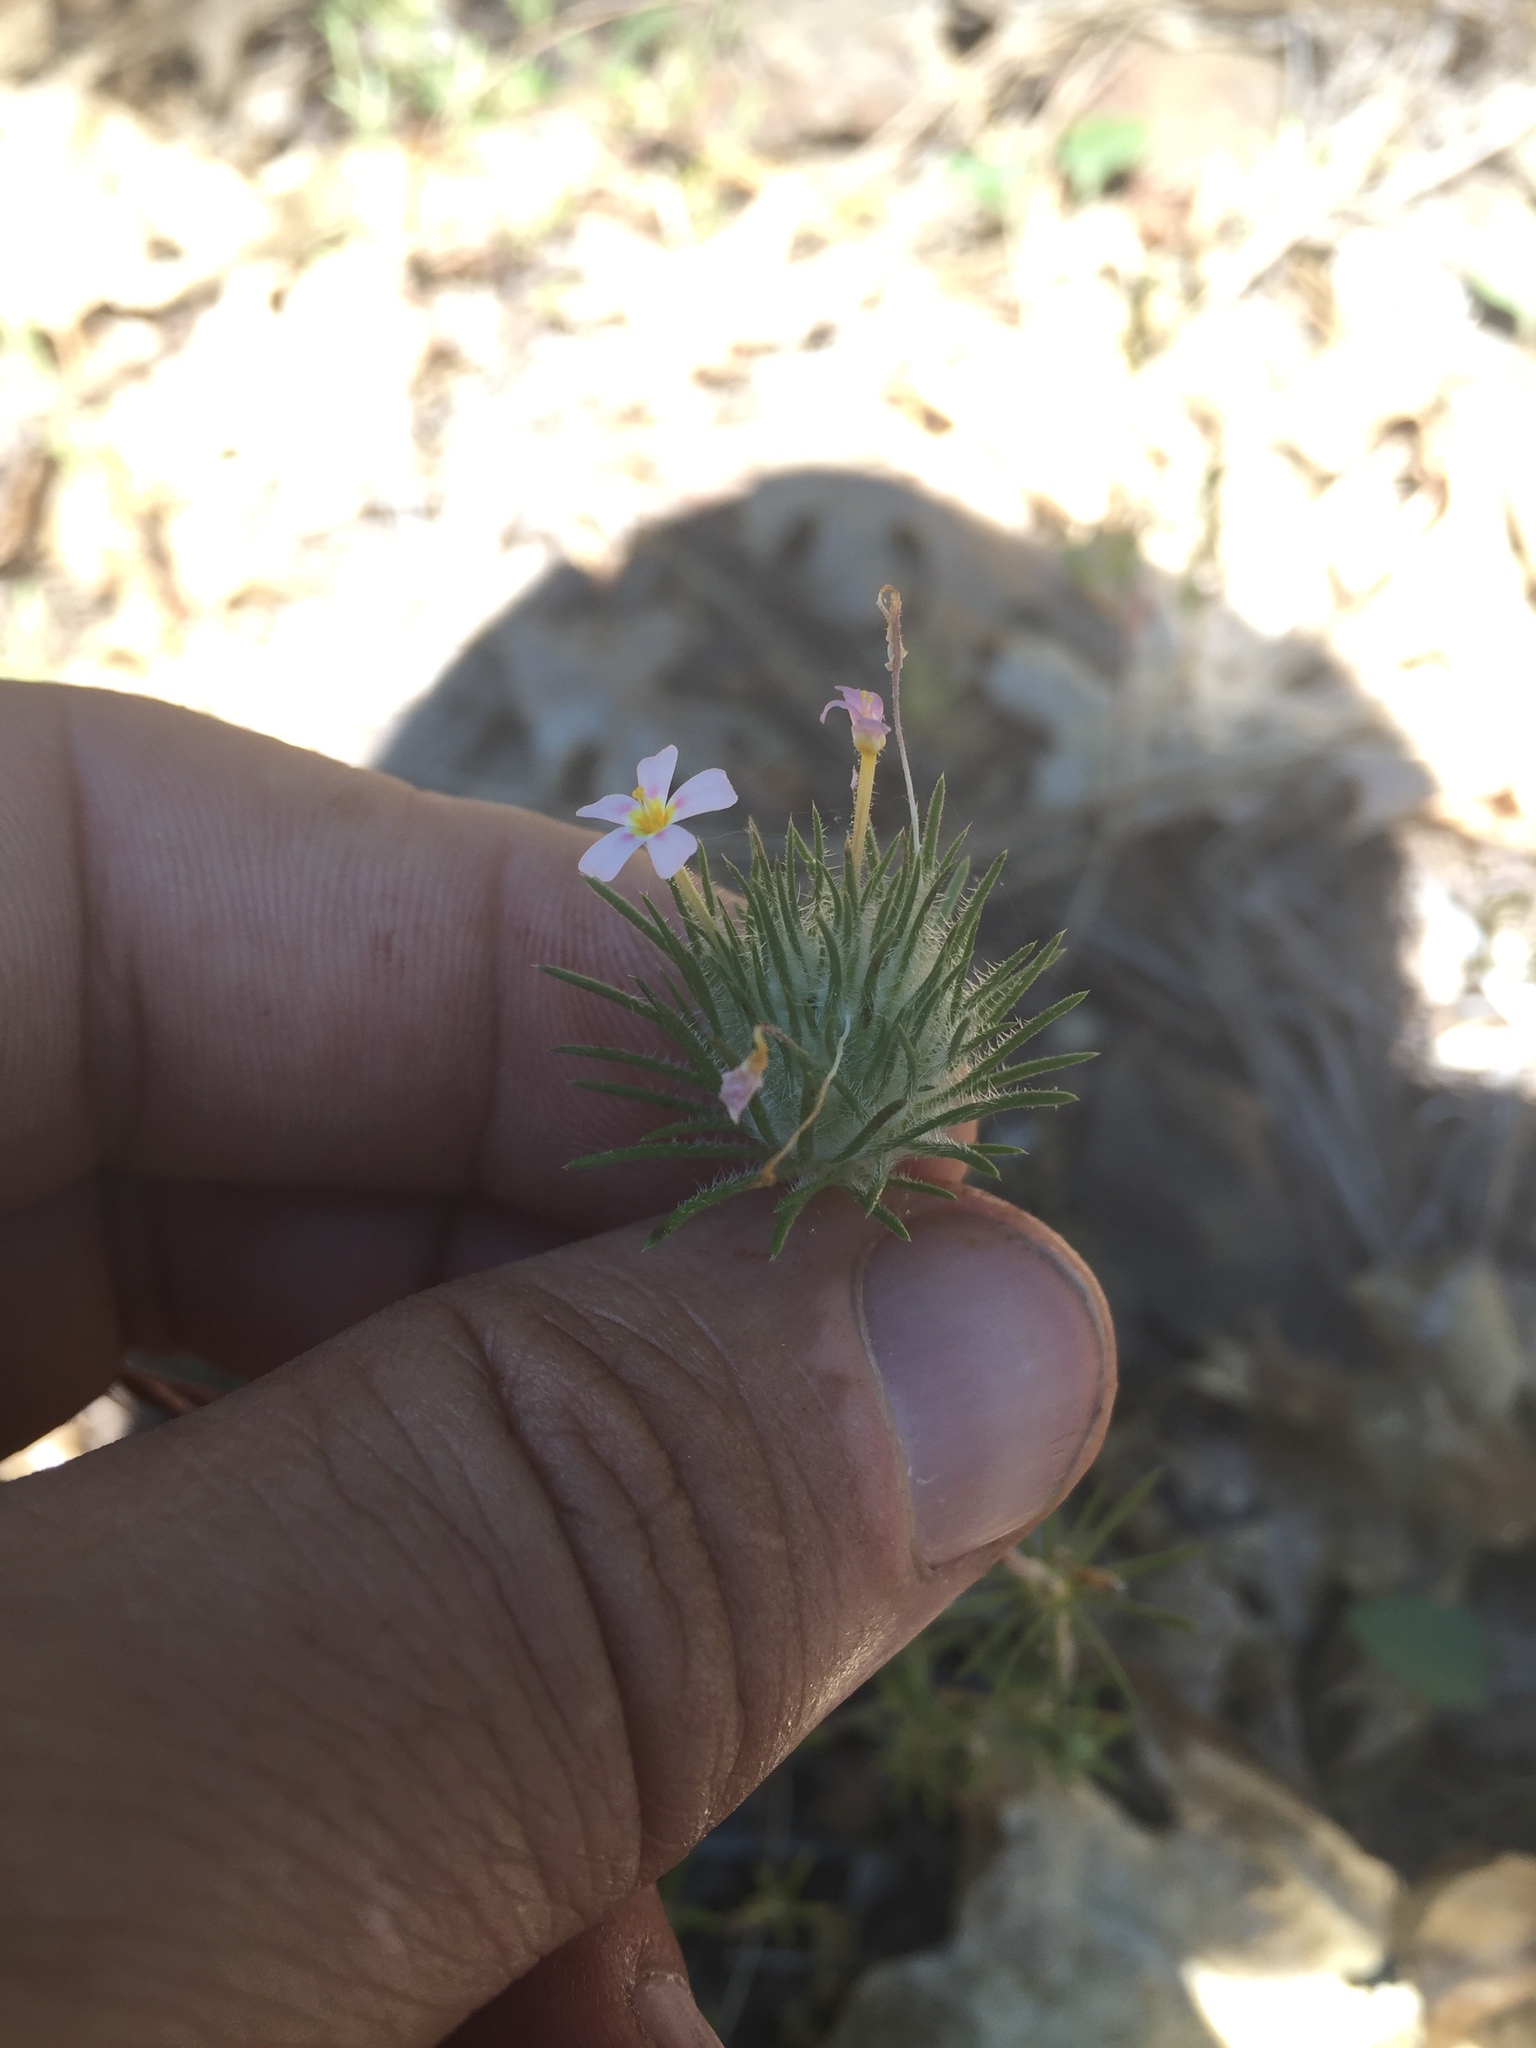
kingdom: Plantae
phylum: Tracheophyta
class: Magnoliopsida
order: Ericales
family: Polemoniaceae
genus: Leptosiphon
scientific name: Leptosiphon ciliatus
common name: Whiskerbrush
